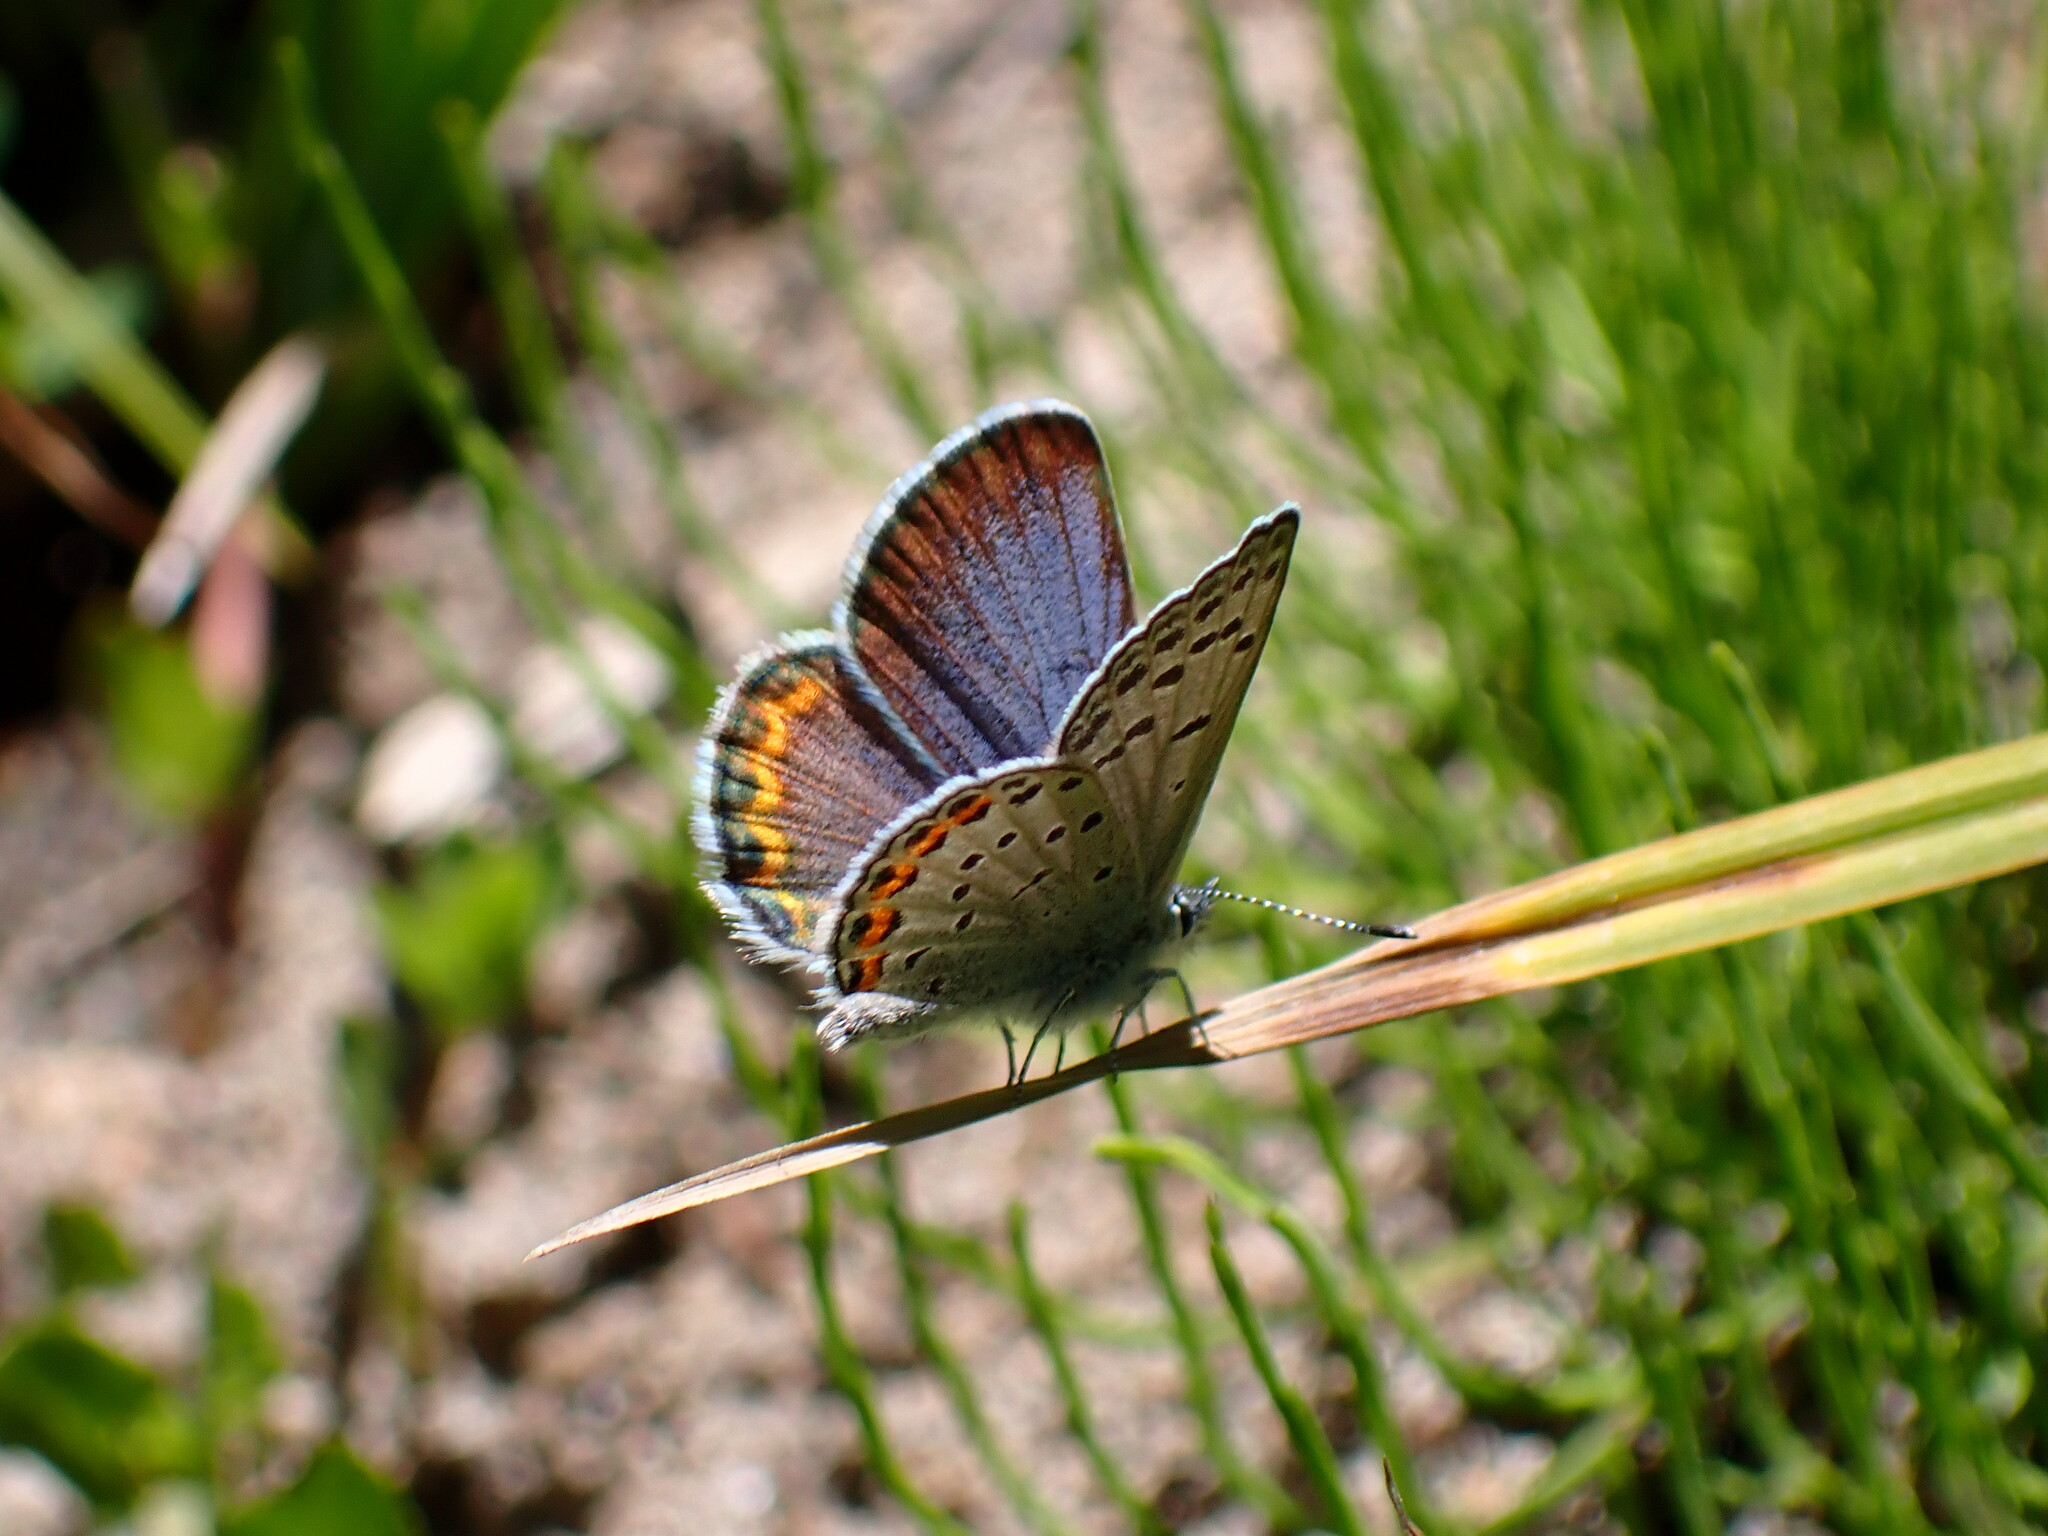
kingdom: Animalia
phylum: Arthropoda
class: Insecta
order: Lepidoptera
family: Lycaenidae
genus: Icaricia
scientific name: Icaricia lupini
